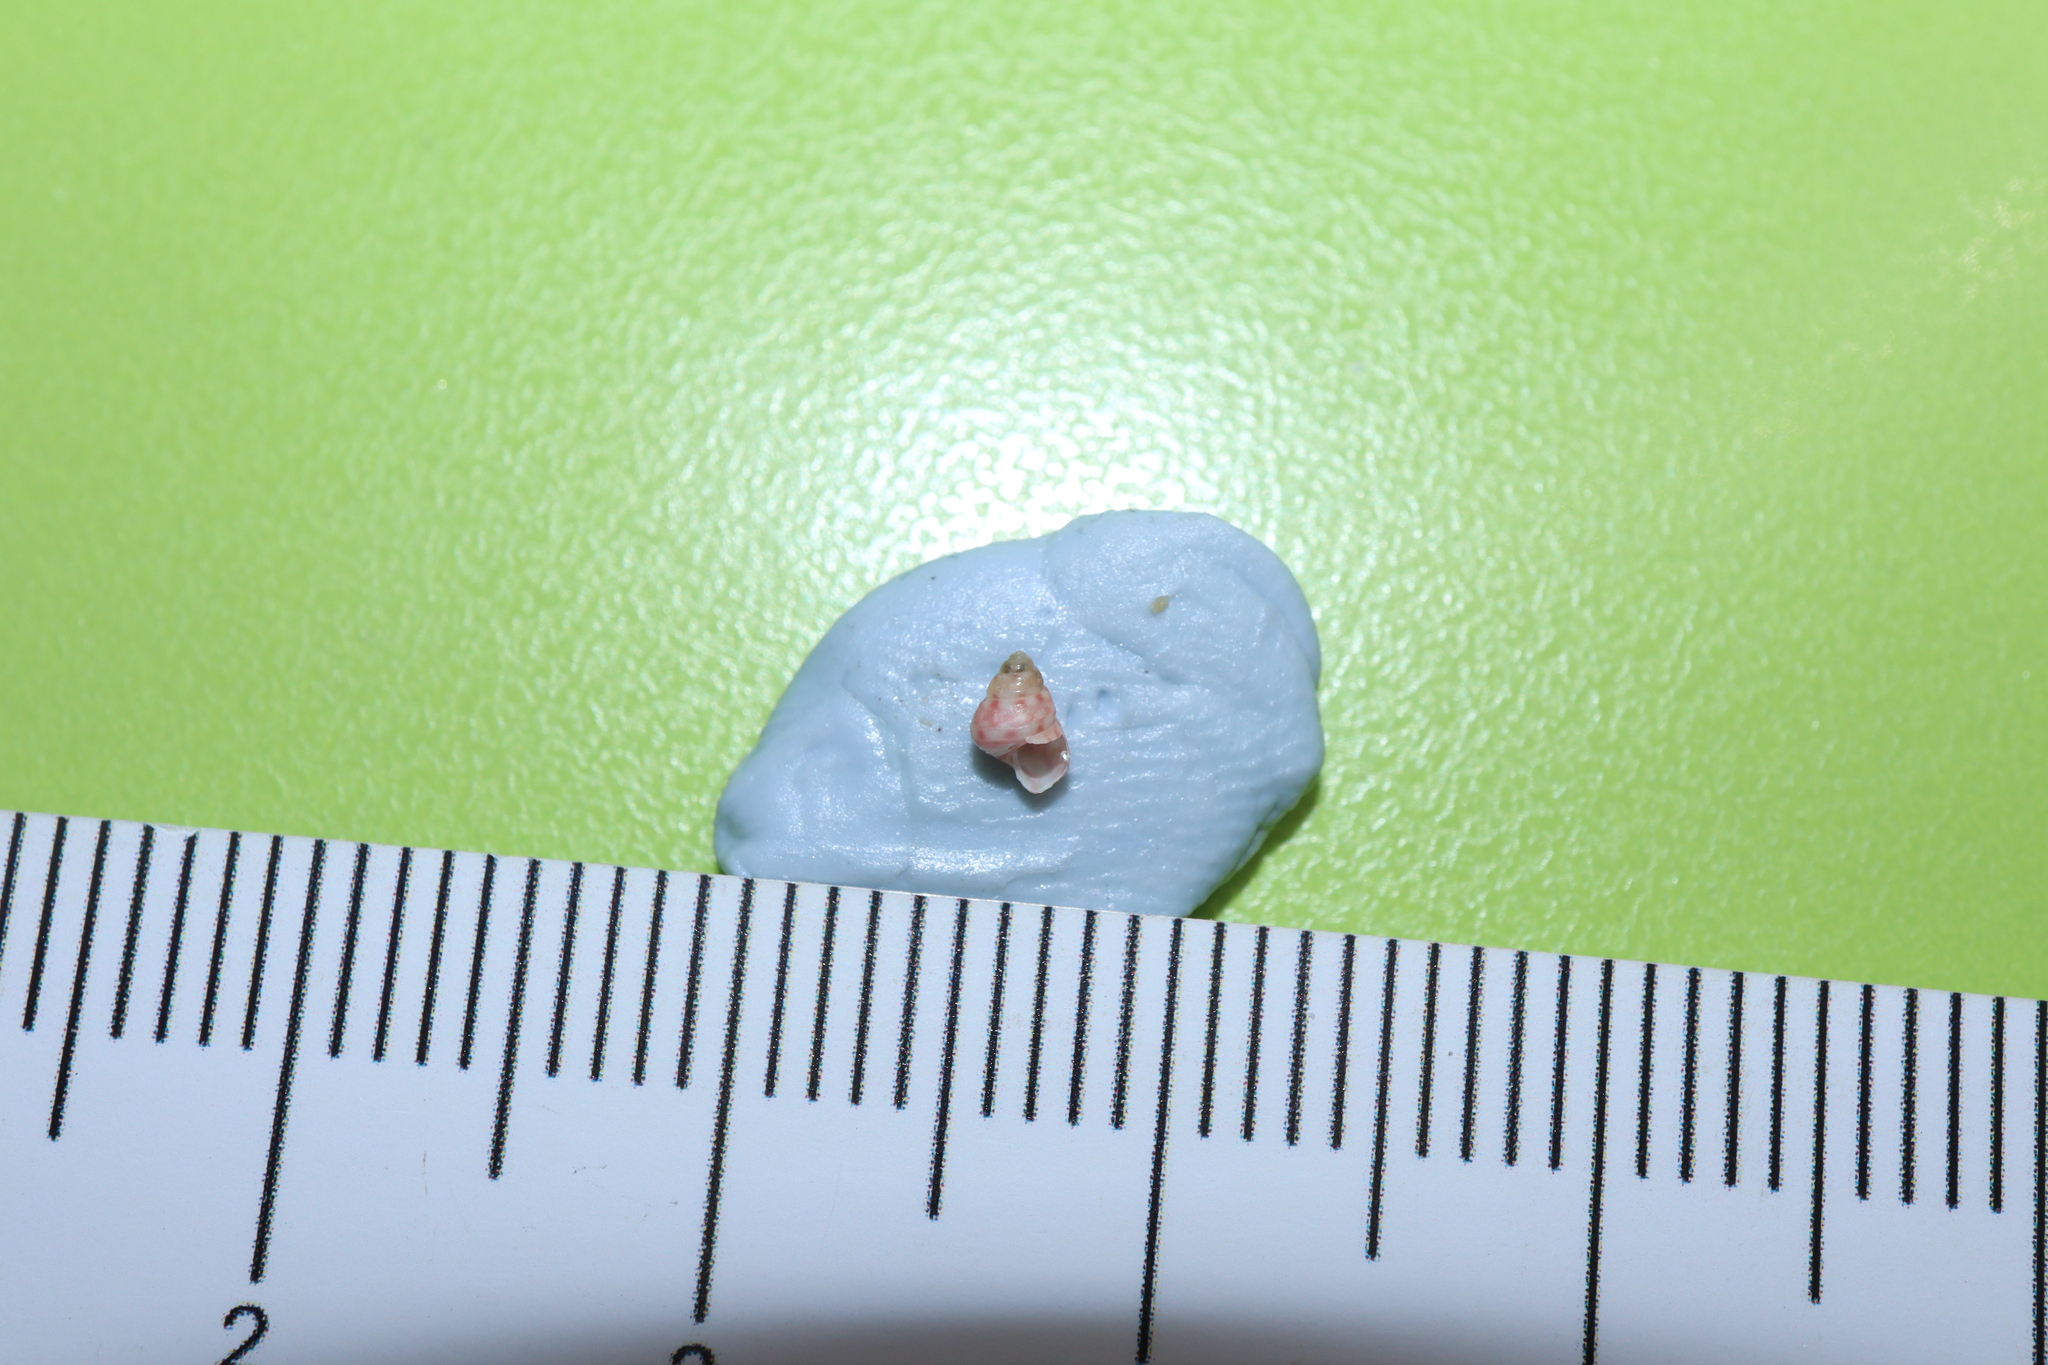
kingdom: Animalia
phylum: Mollusca
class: Gastropoda
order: Trochida
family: Trochidae
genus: Leiopyrga
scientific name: Leiopyrga cingulata
